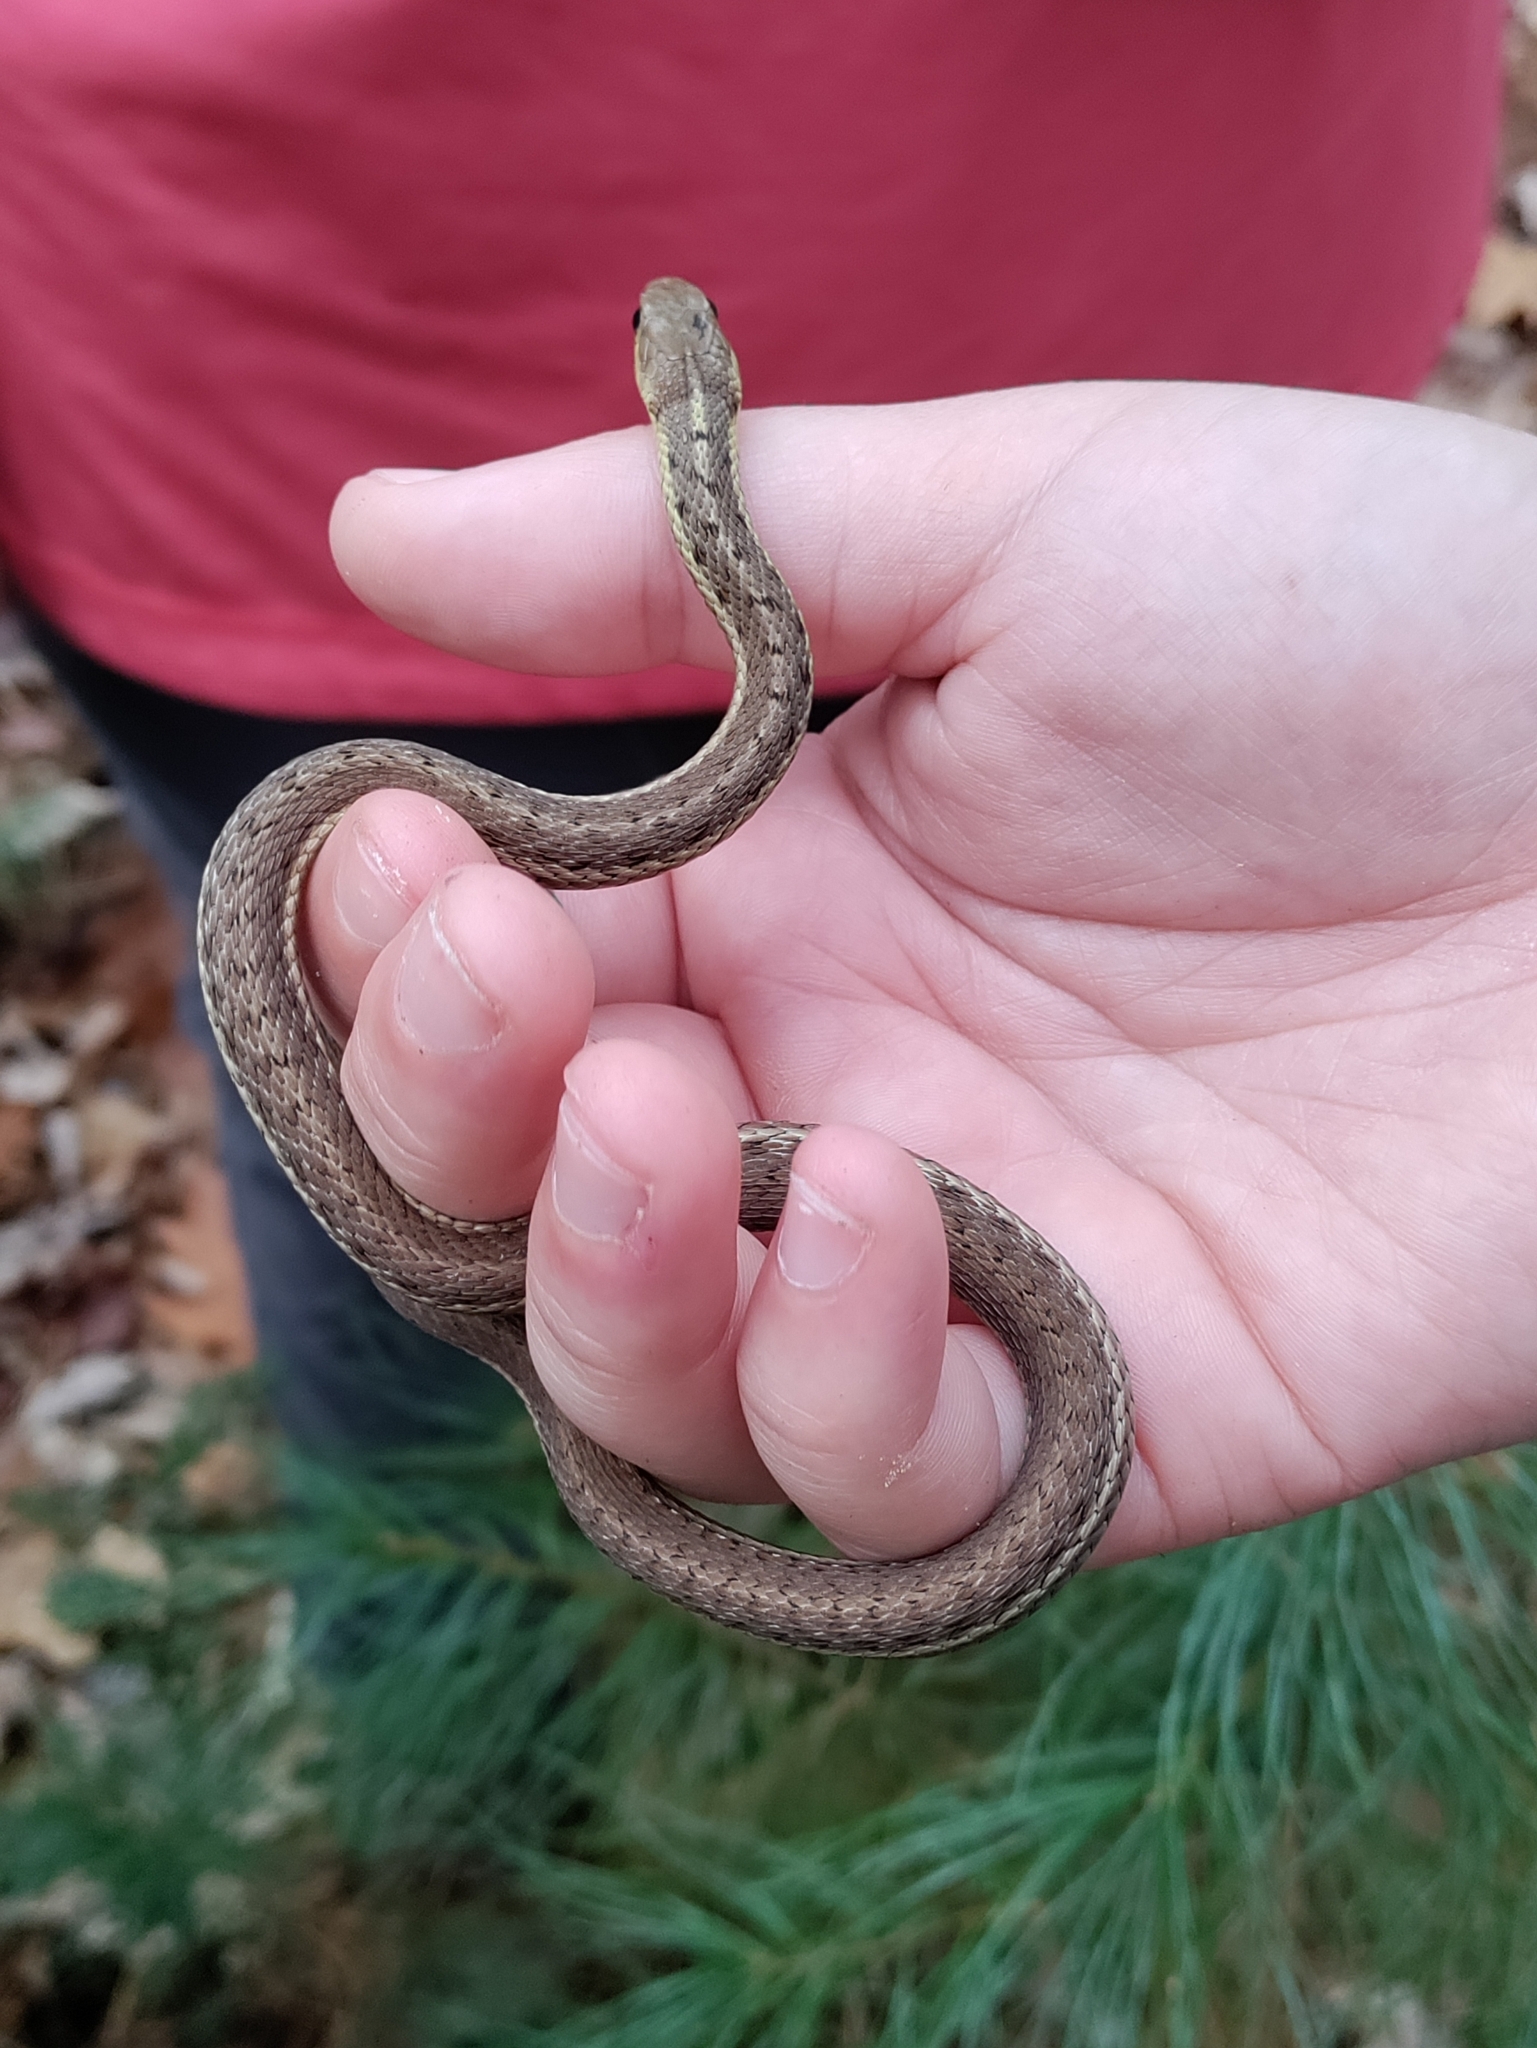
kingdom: Animalia
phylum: Chordata
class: Squamata
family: Colubridae
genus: Thamnophis
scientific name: Thamnophis sirtalis
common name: Common garter snake
